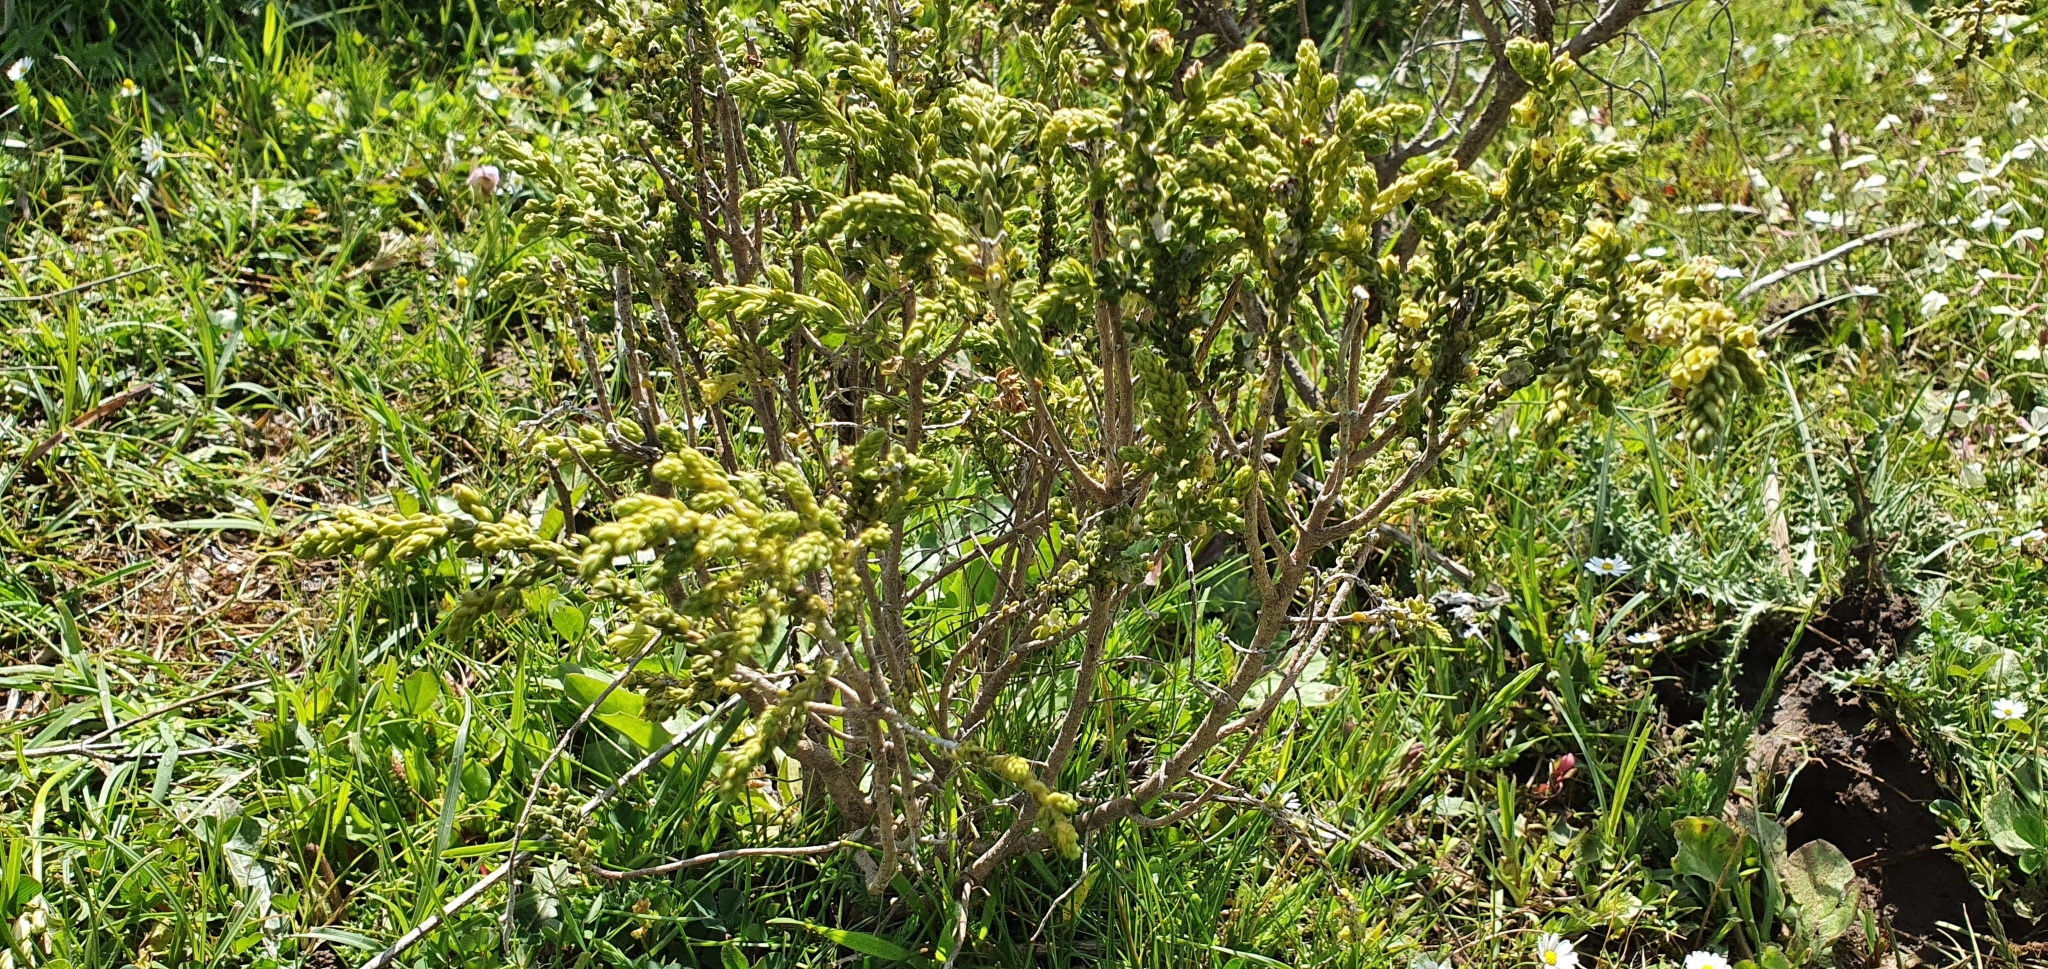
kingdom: Plantae
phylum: Tracheophyta
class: Magnoliopsida
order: Malvales
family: Thymelaeaceae
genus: Thymelaea
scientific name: Thymelaea hirsuta
